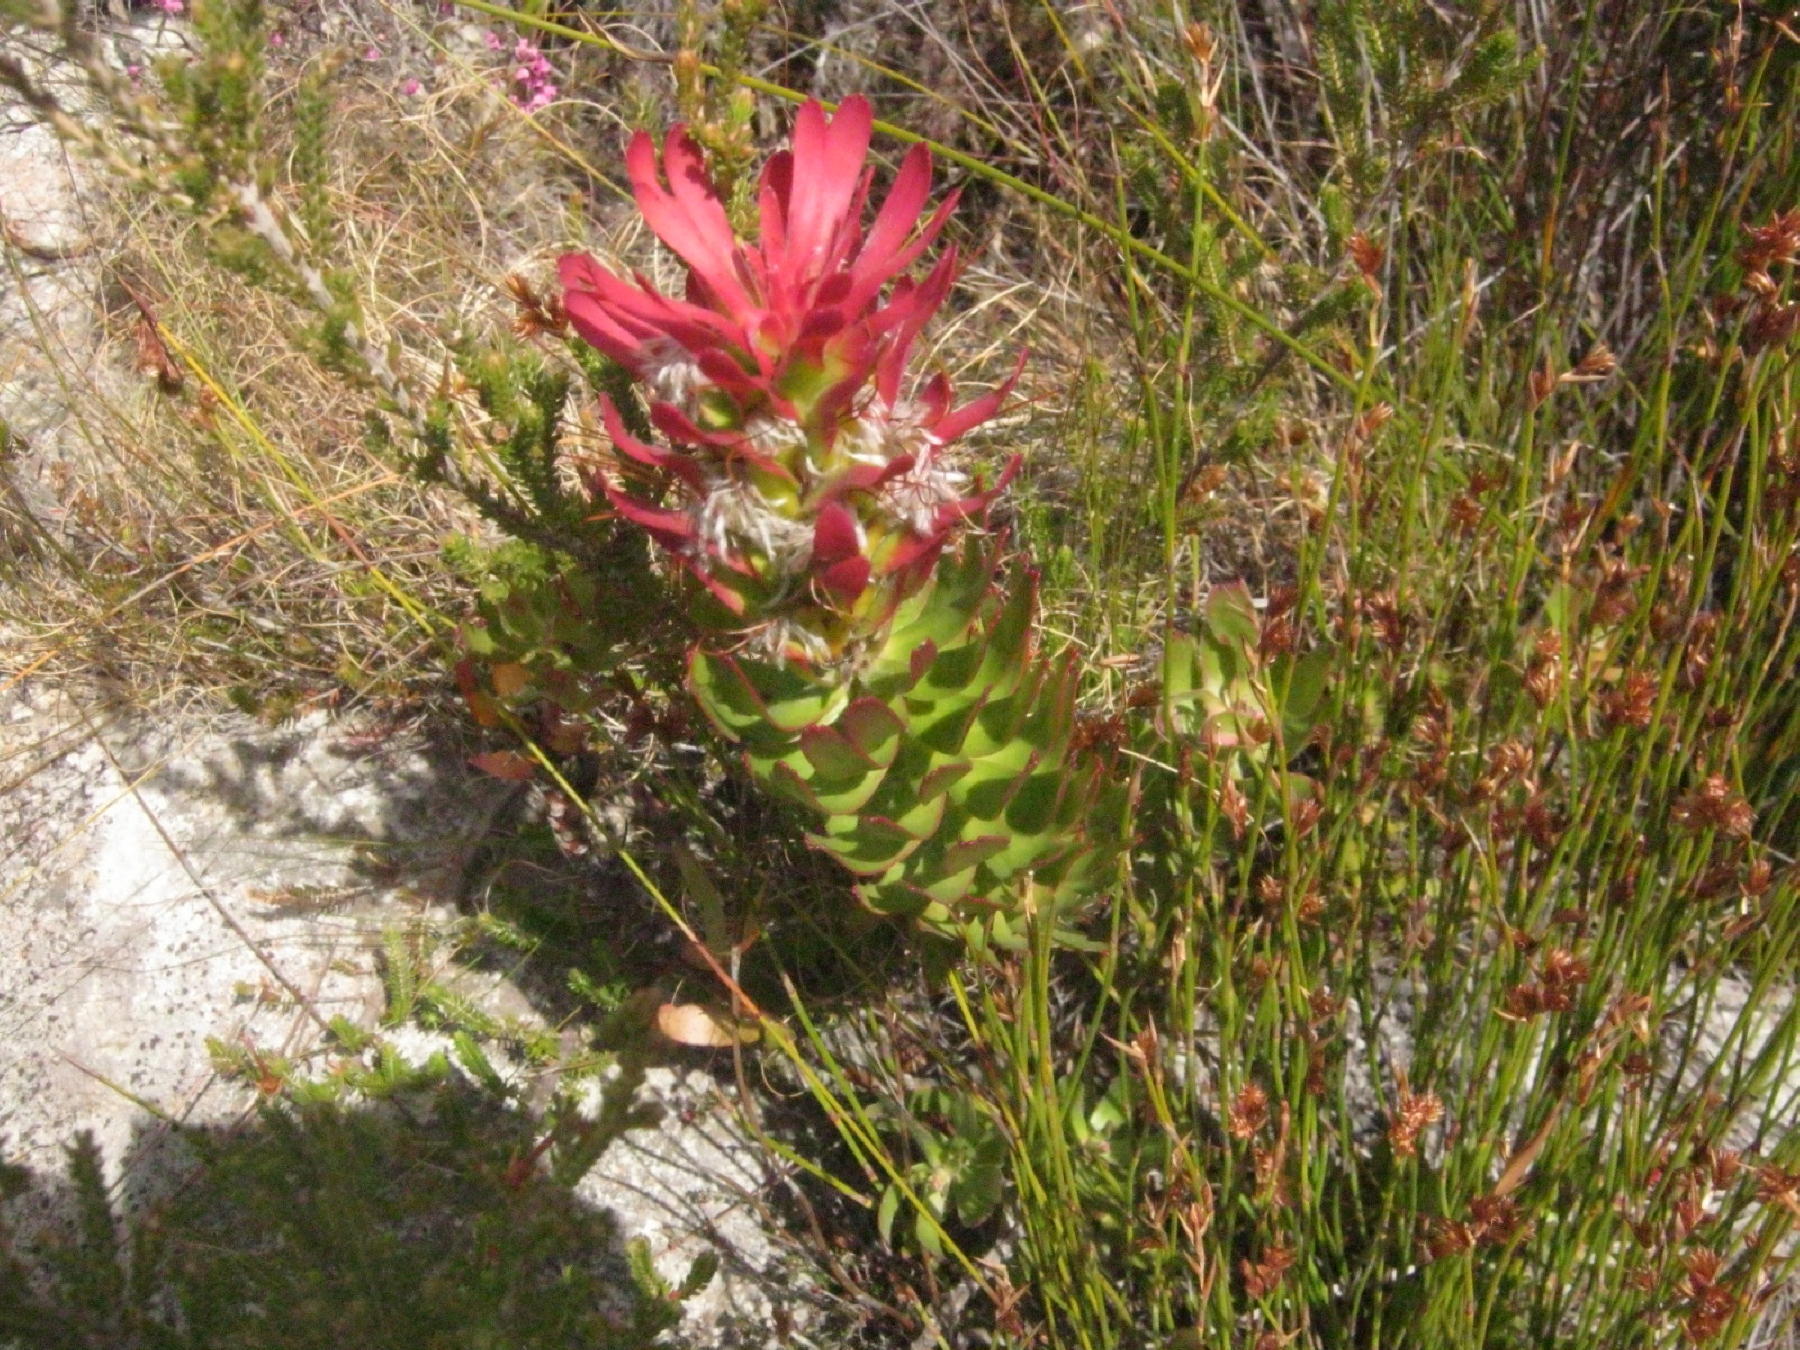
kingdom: Plantae
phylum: Tracheophyta
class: Magnoliopsida
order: Proteales
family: Proteaceae
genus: Mimetes
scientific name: Mimetes cucullatus
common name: Common pagoda
